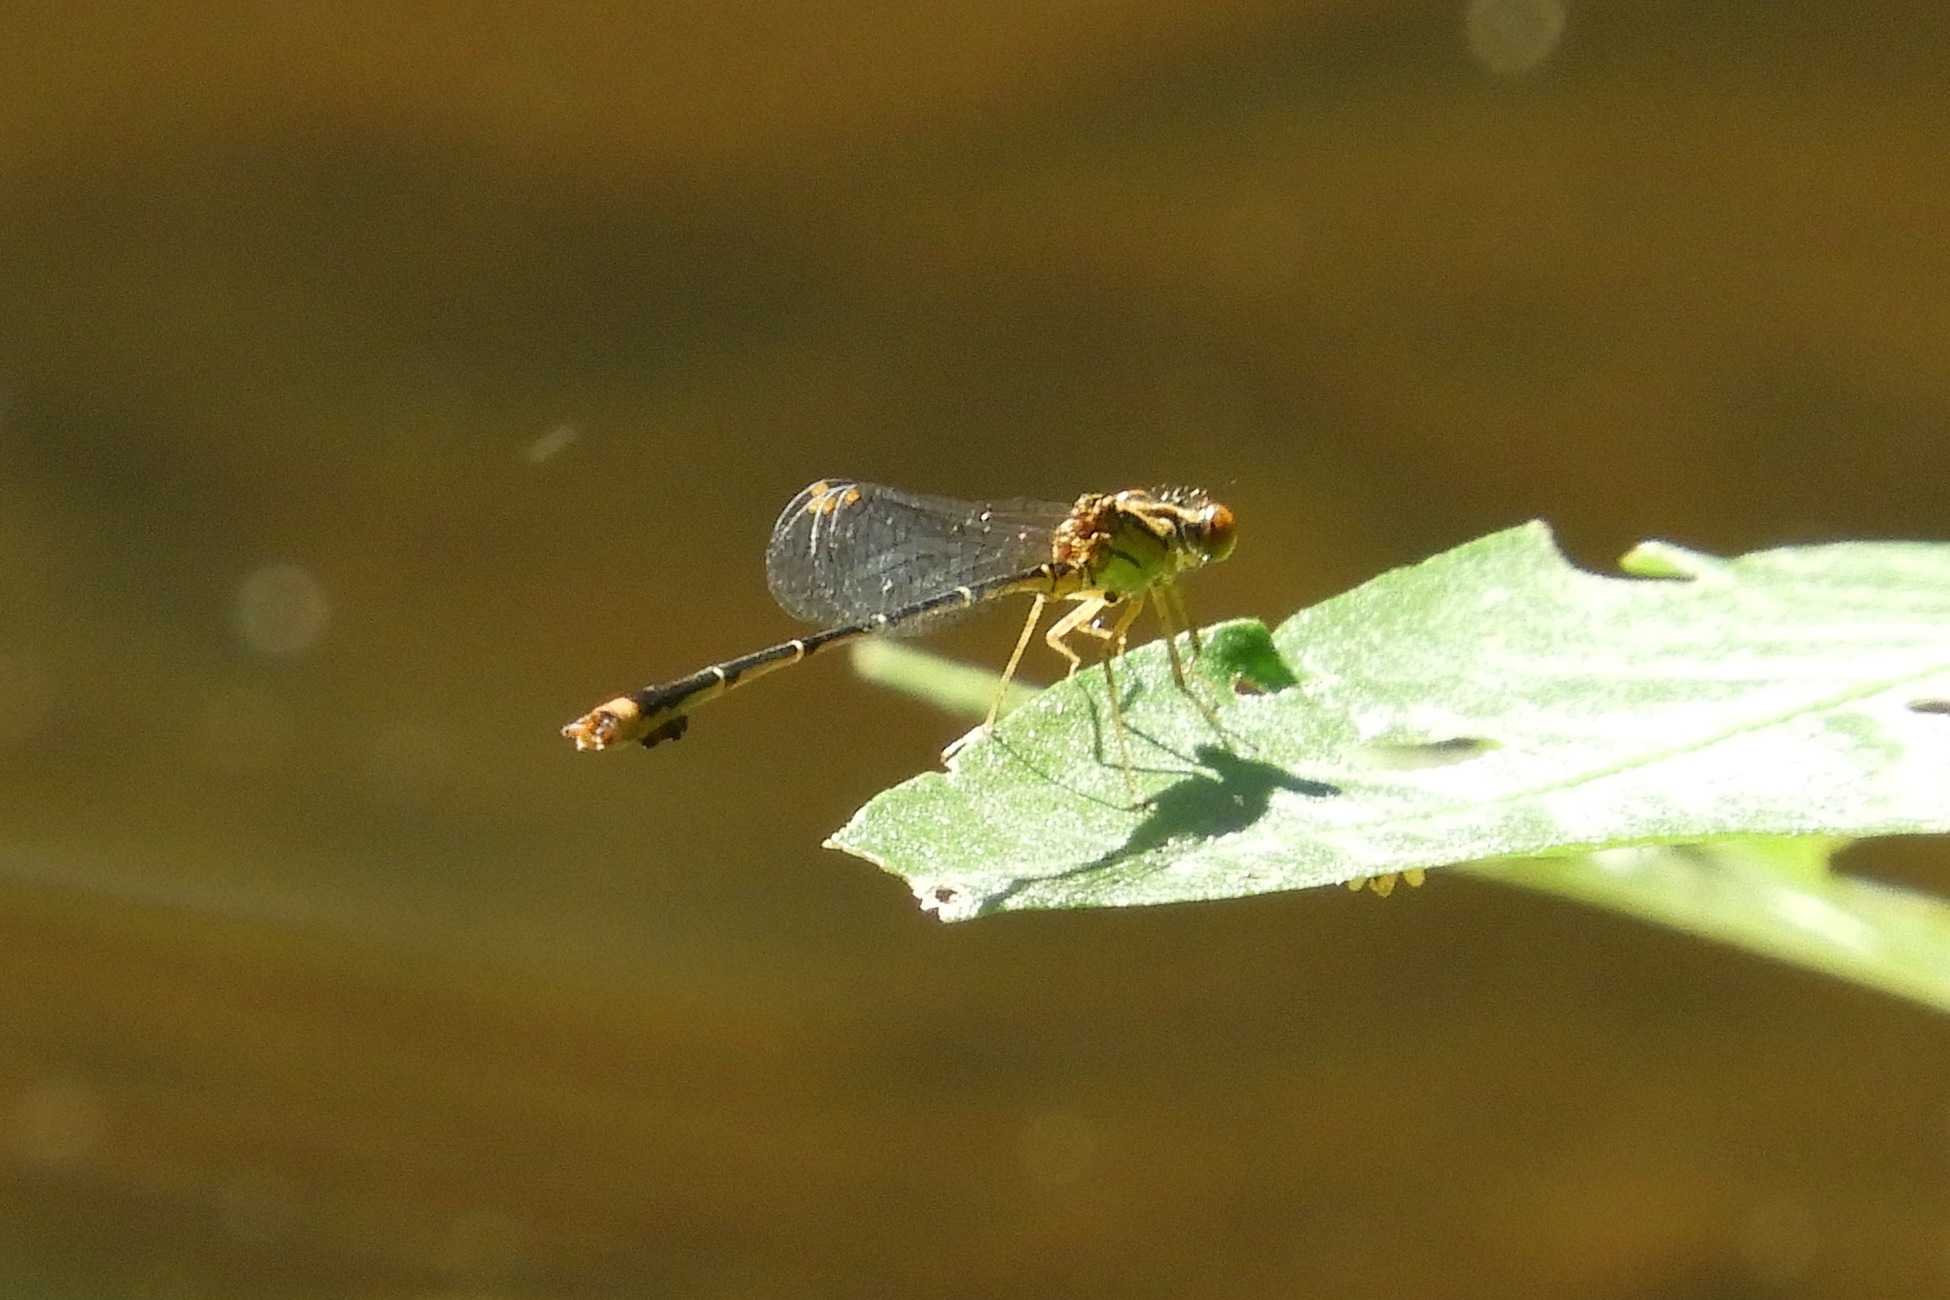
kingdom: Animalia
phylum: Arthropoda
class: Insecta
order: Odonata
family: Coenagrionidae
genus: Enallagma
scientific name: Enallagma signatum
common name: Orange bluet
